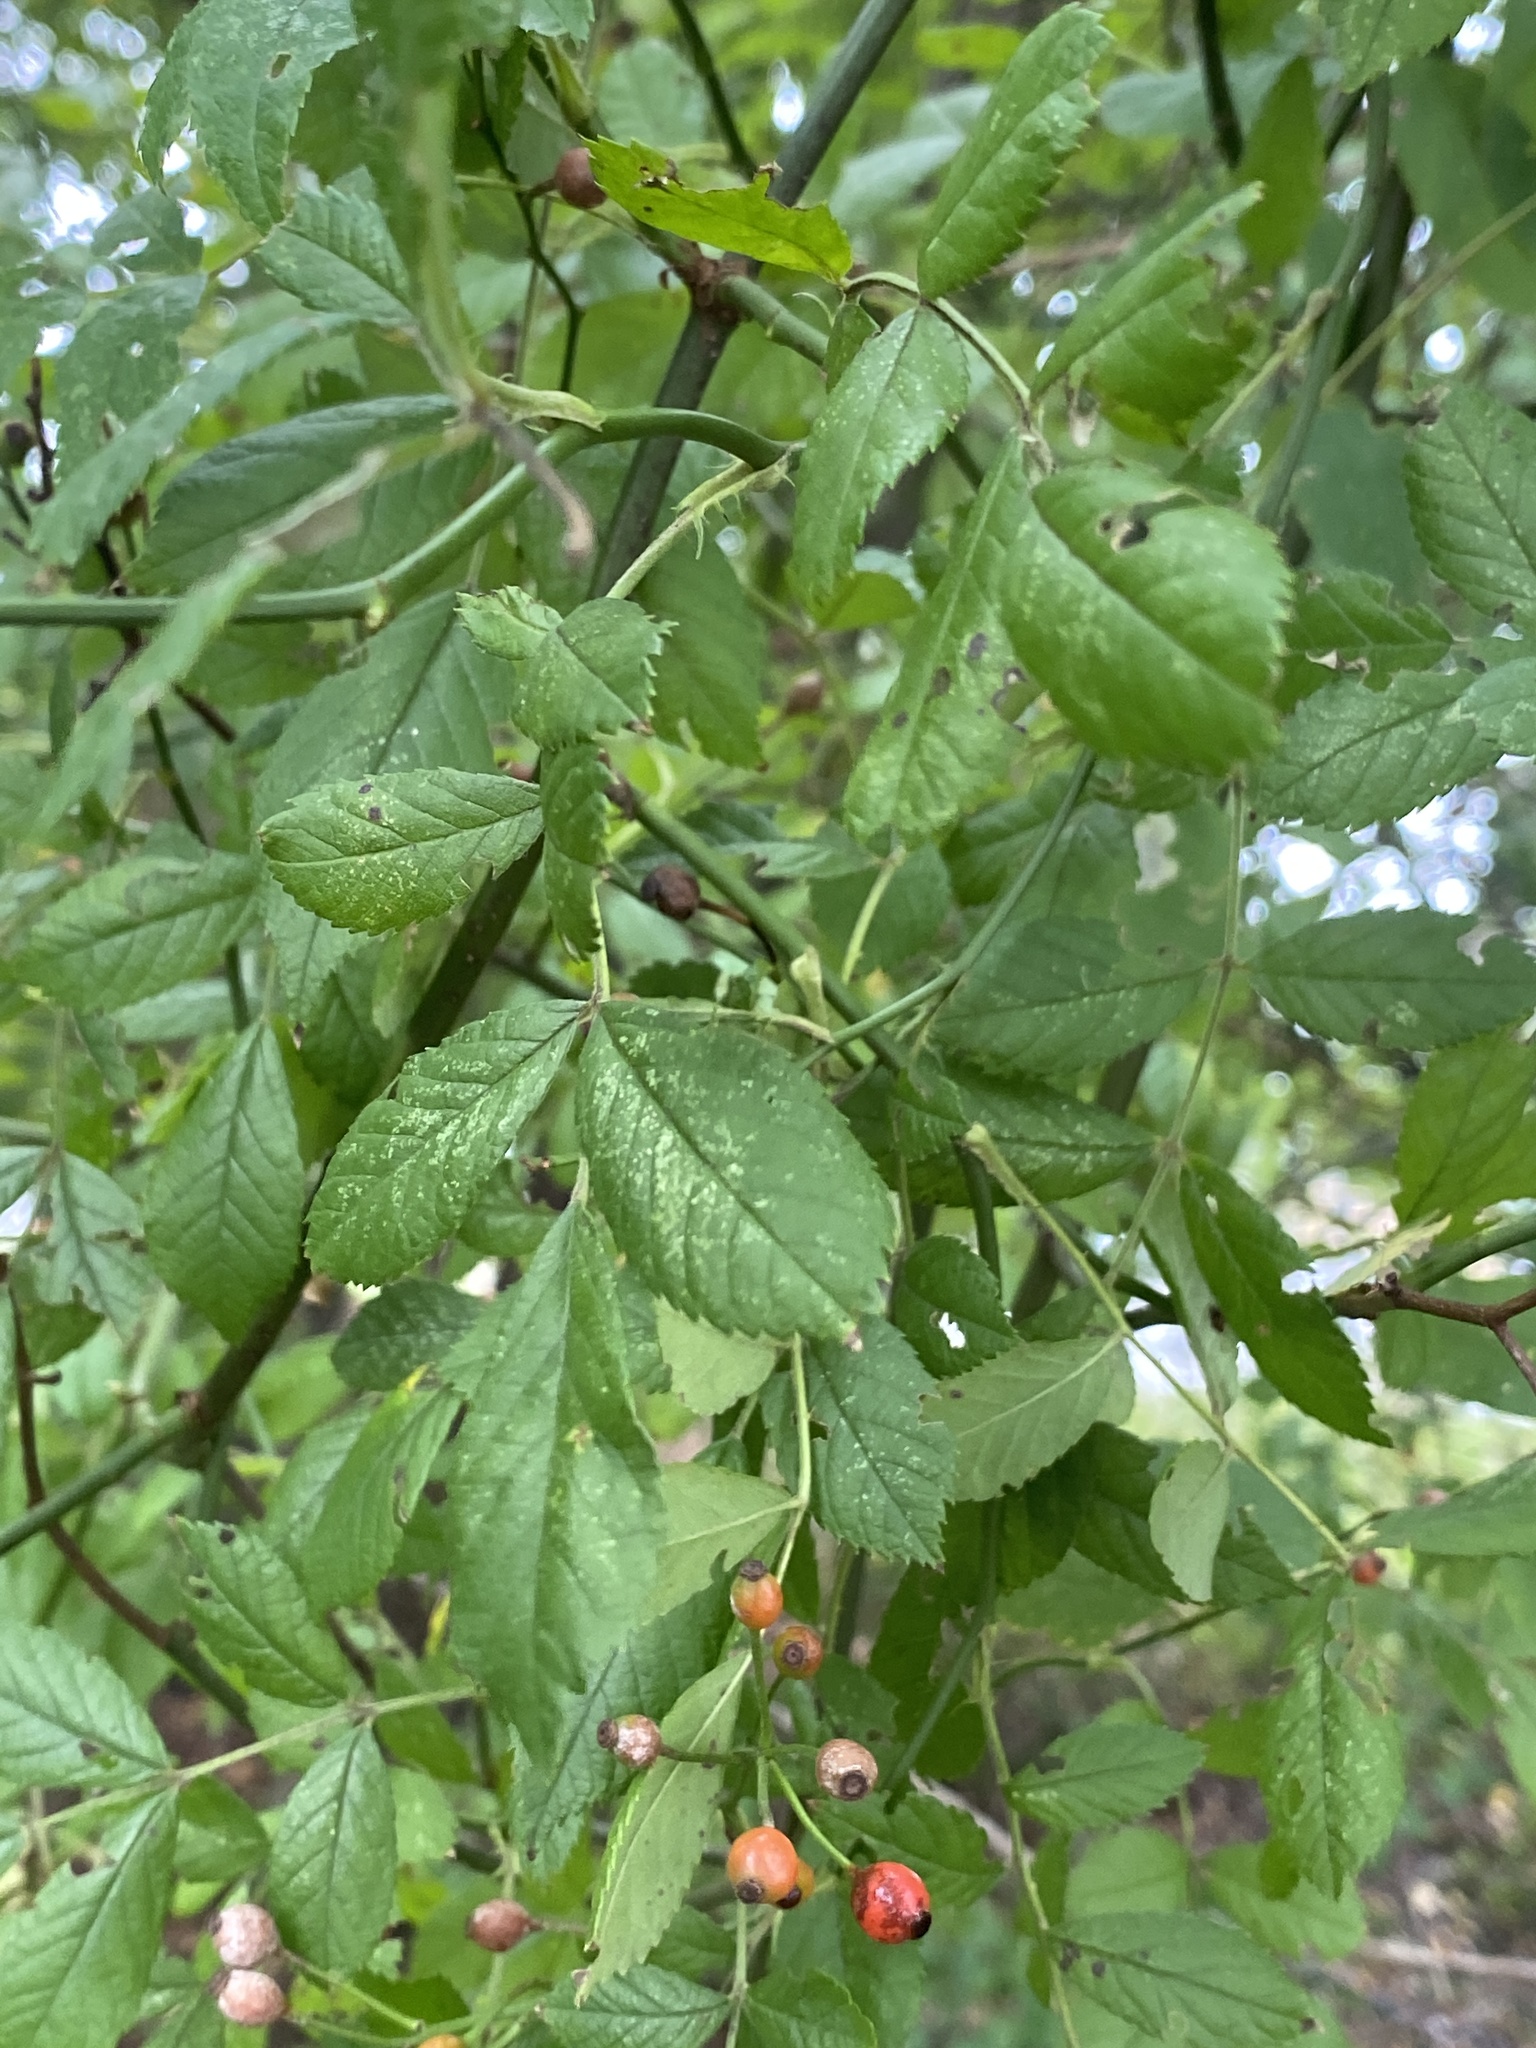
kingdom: Plantae
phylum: Tracheophyta
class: Magnoliopsida
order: Rosales
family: Rosaceae
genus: Rosa
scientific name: Rosa multiflora
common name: Multiflora rose
